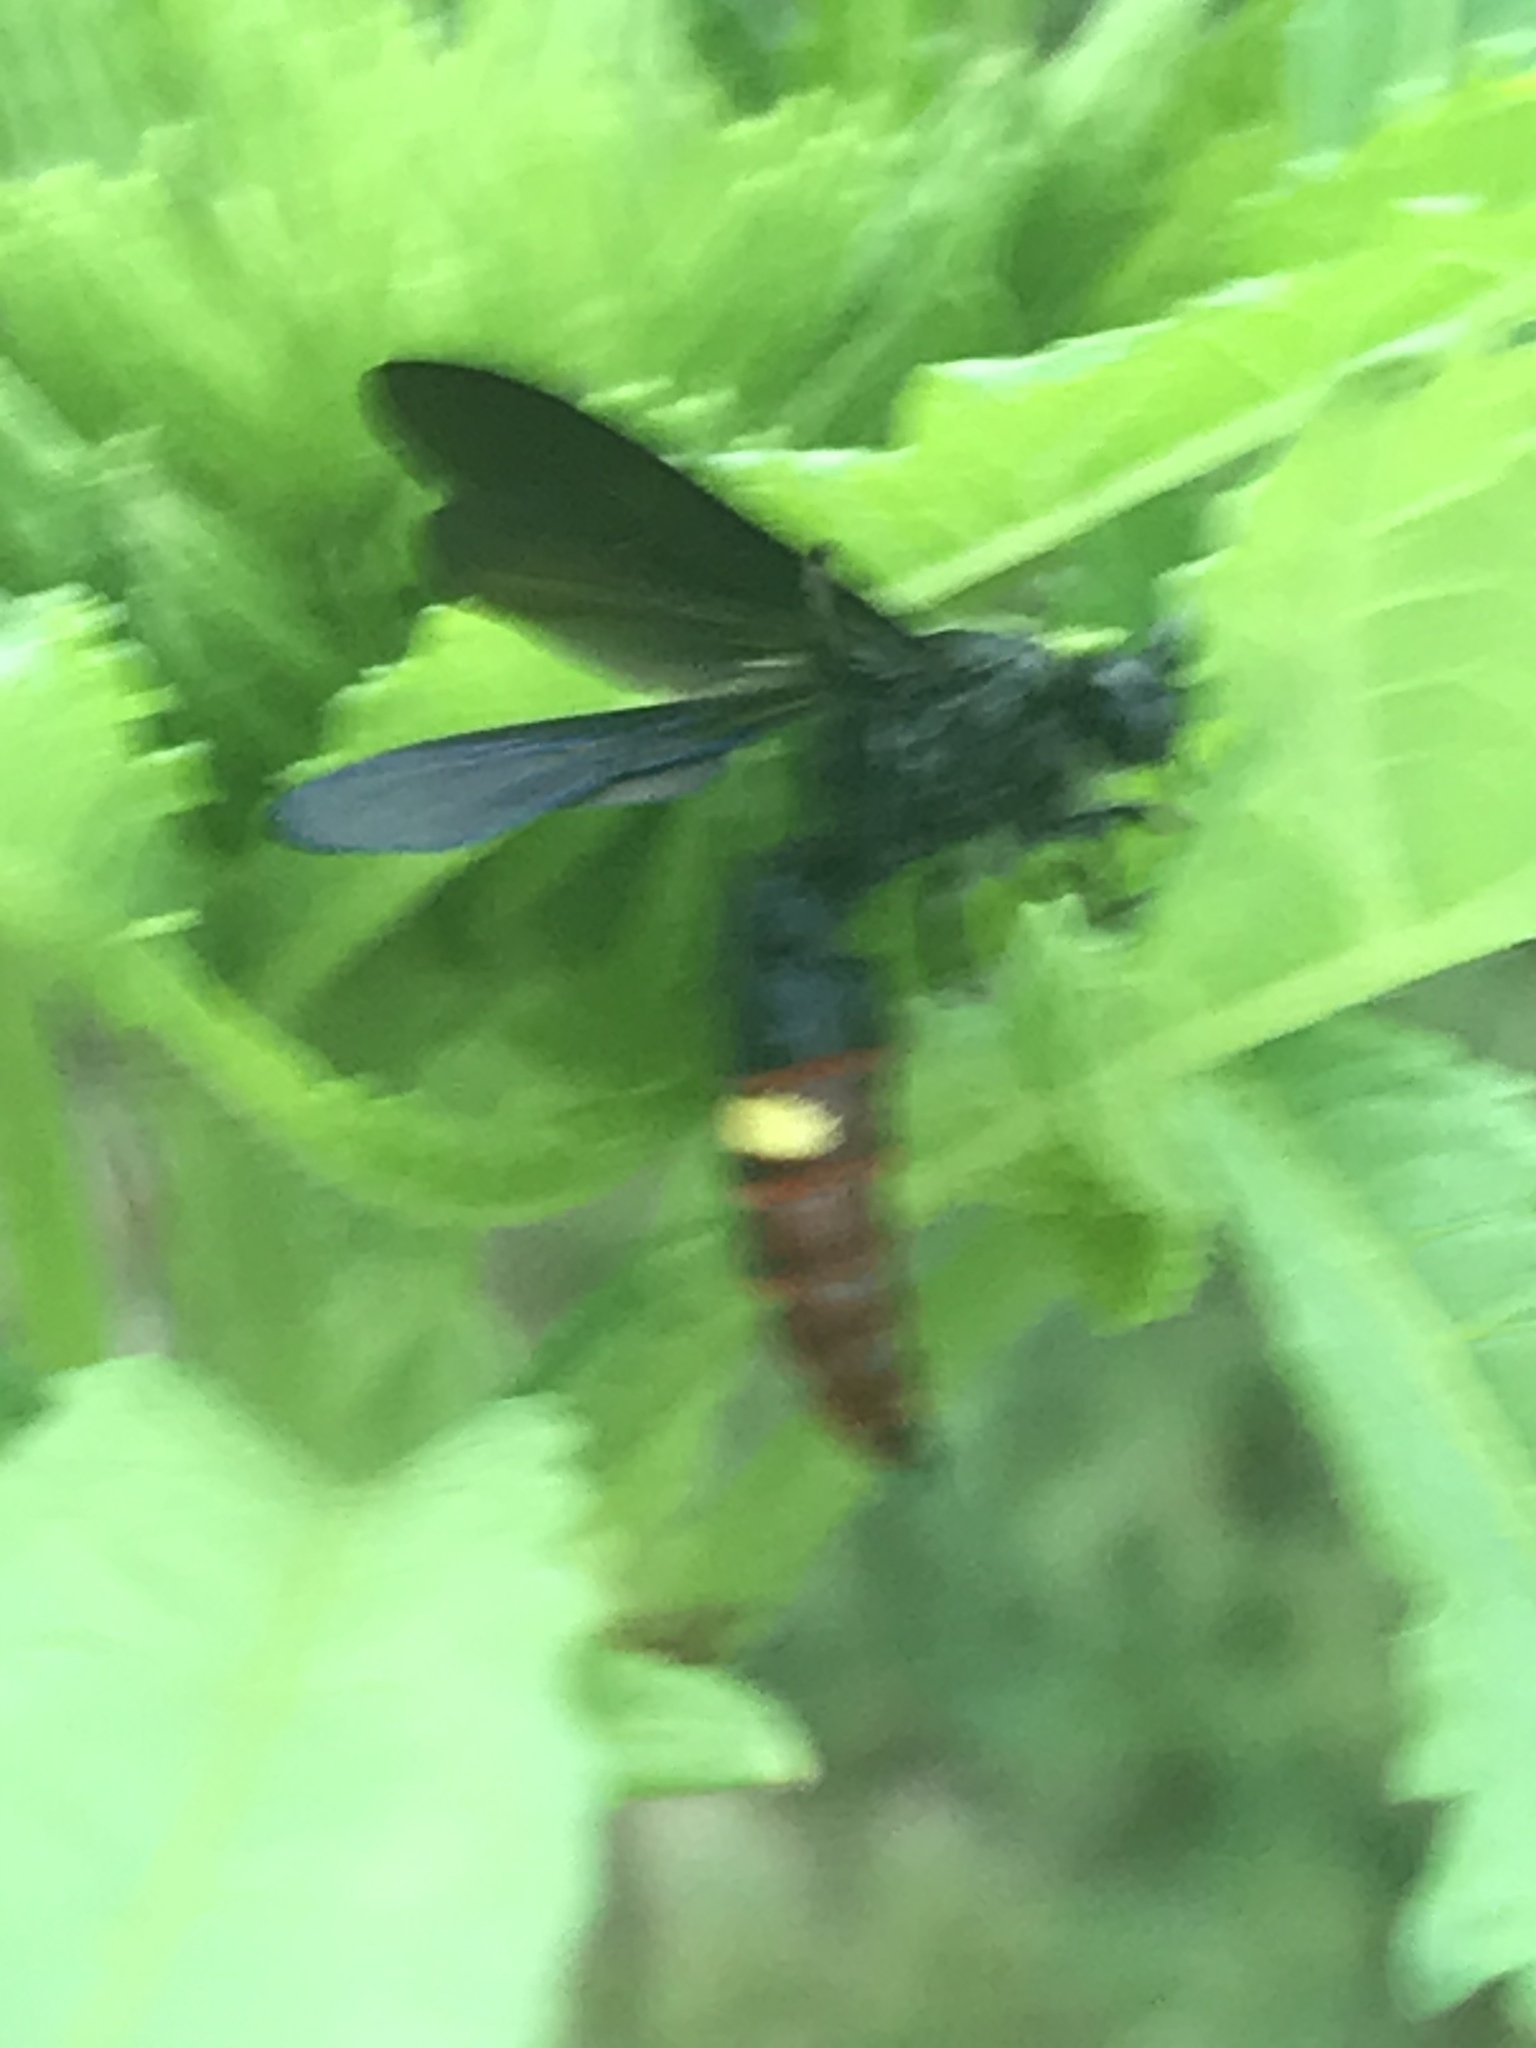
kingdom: Animalia
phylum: Arthropoda
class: Insecta
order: Hymenoptera
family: Scoliidae
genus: Scolia
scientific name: Scolia dubia
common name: Blue-winged scoliid wasp
